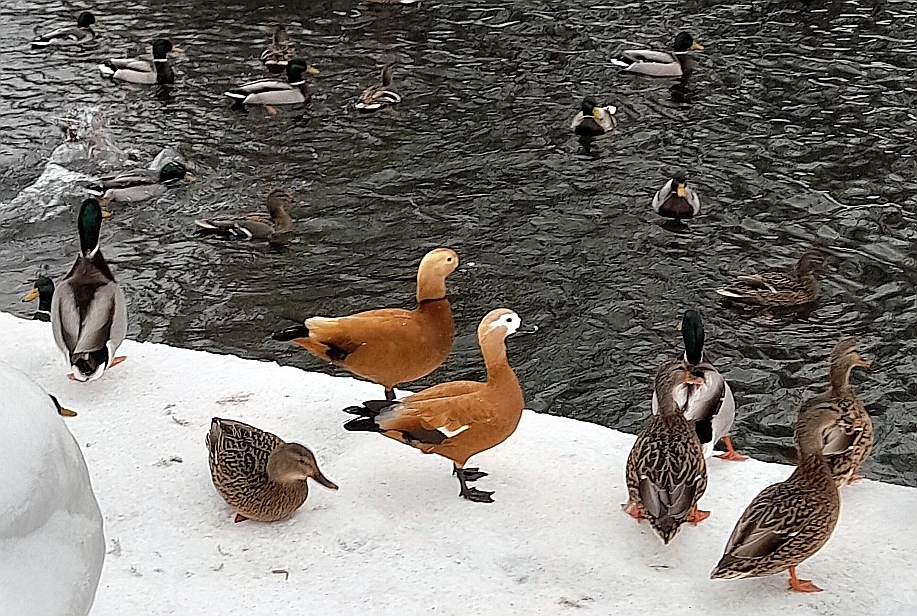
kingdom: Animalia
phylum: Chordata
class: Aves
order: Anseriformes
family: Anatidae
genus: Tadorna
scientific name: Tadorna ferruginea
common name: Ruddy shelduck
